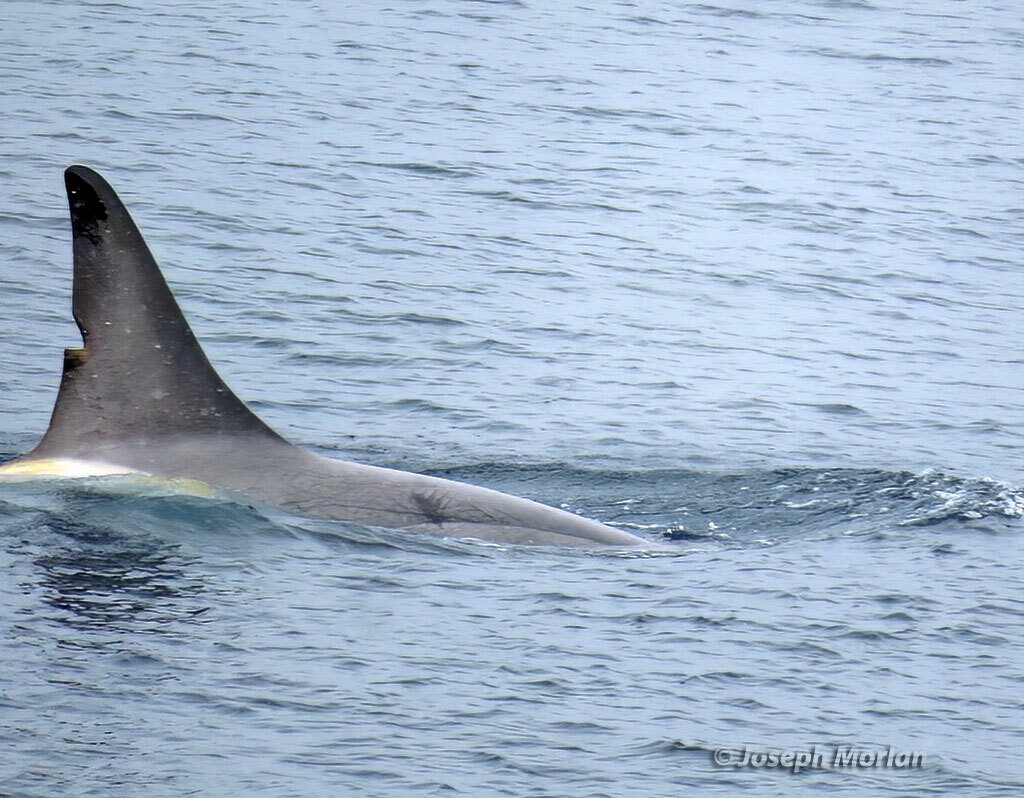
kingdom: Animalia
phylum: Chordata
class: Mammalia
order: Cetacea
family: Delphinidae
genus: Orcinus
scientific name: Orcinus orca
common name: Killer whale
